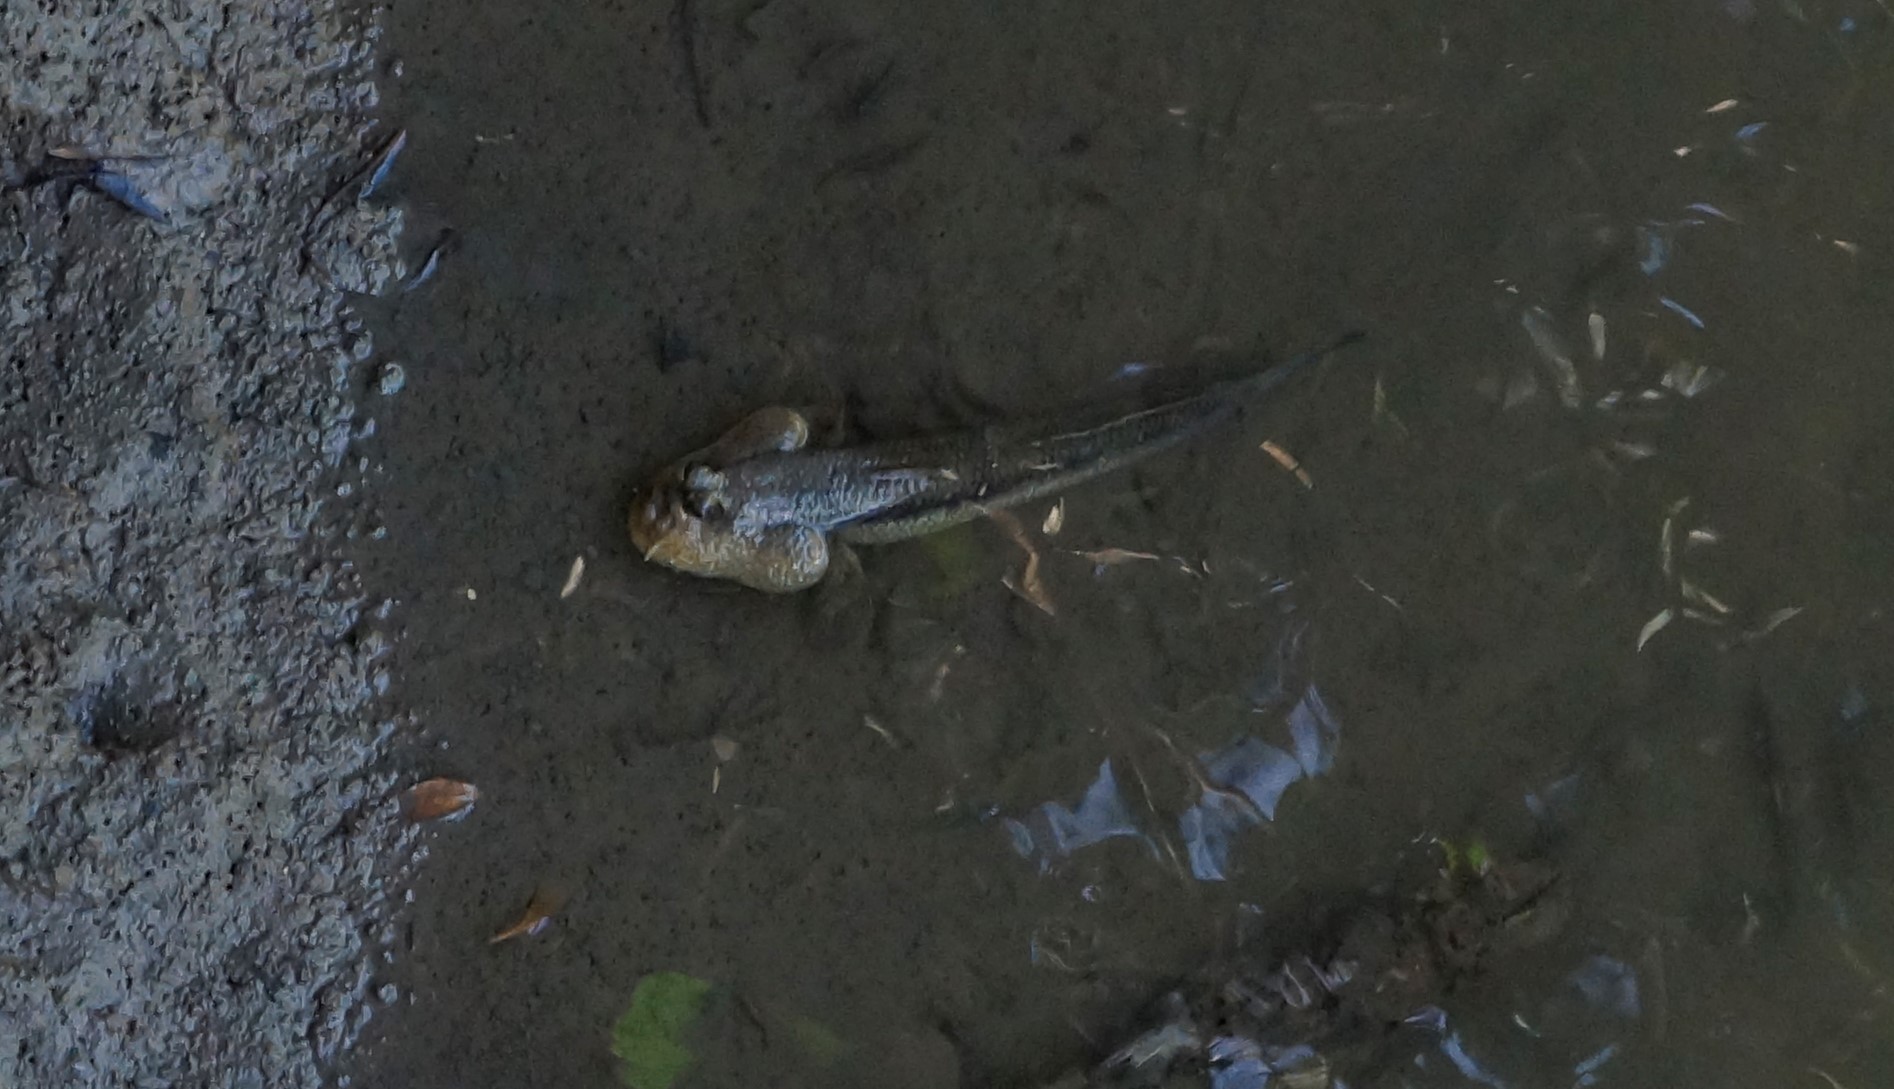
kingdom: Animalia
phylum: Chordata
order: Perciformes
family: Gobiidae
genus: Periophthalmodon
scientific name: Periophthalmodon freycineti
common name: Giant mudskipper
